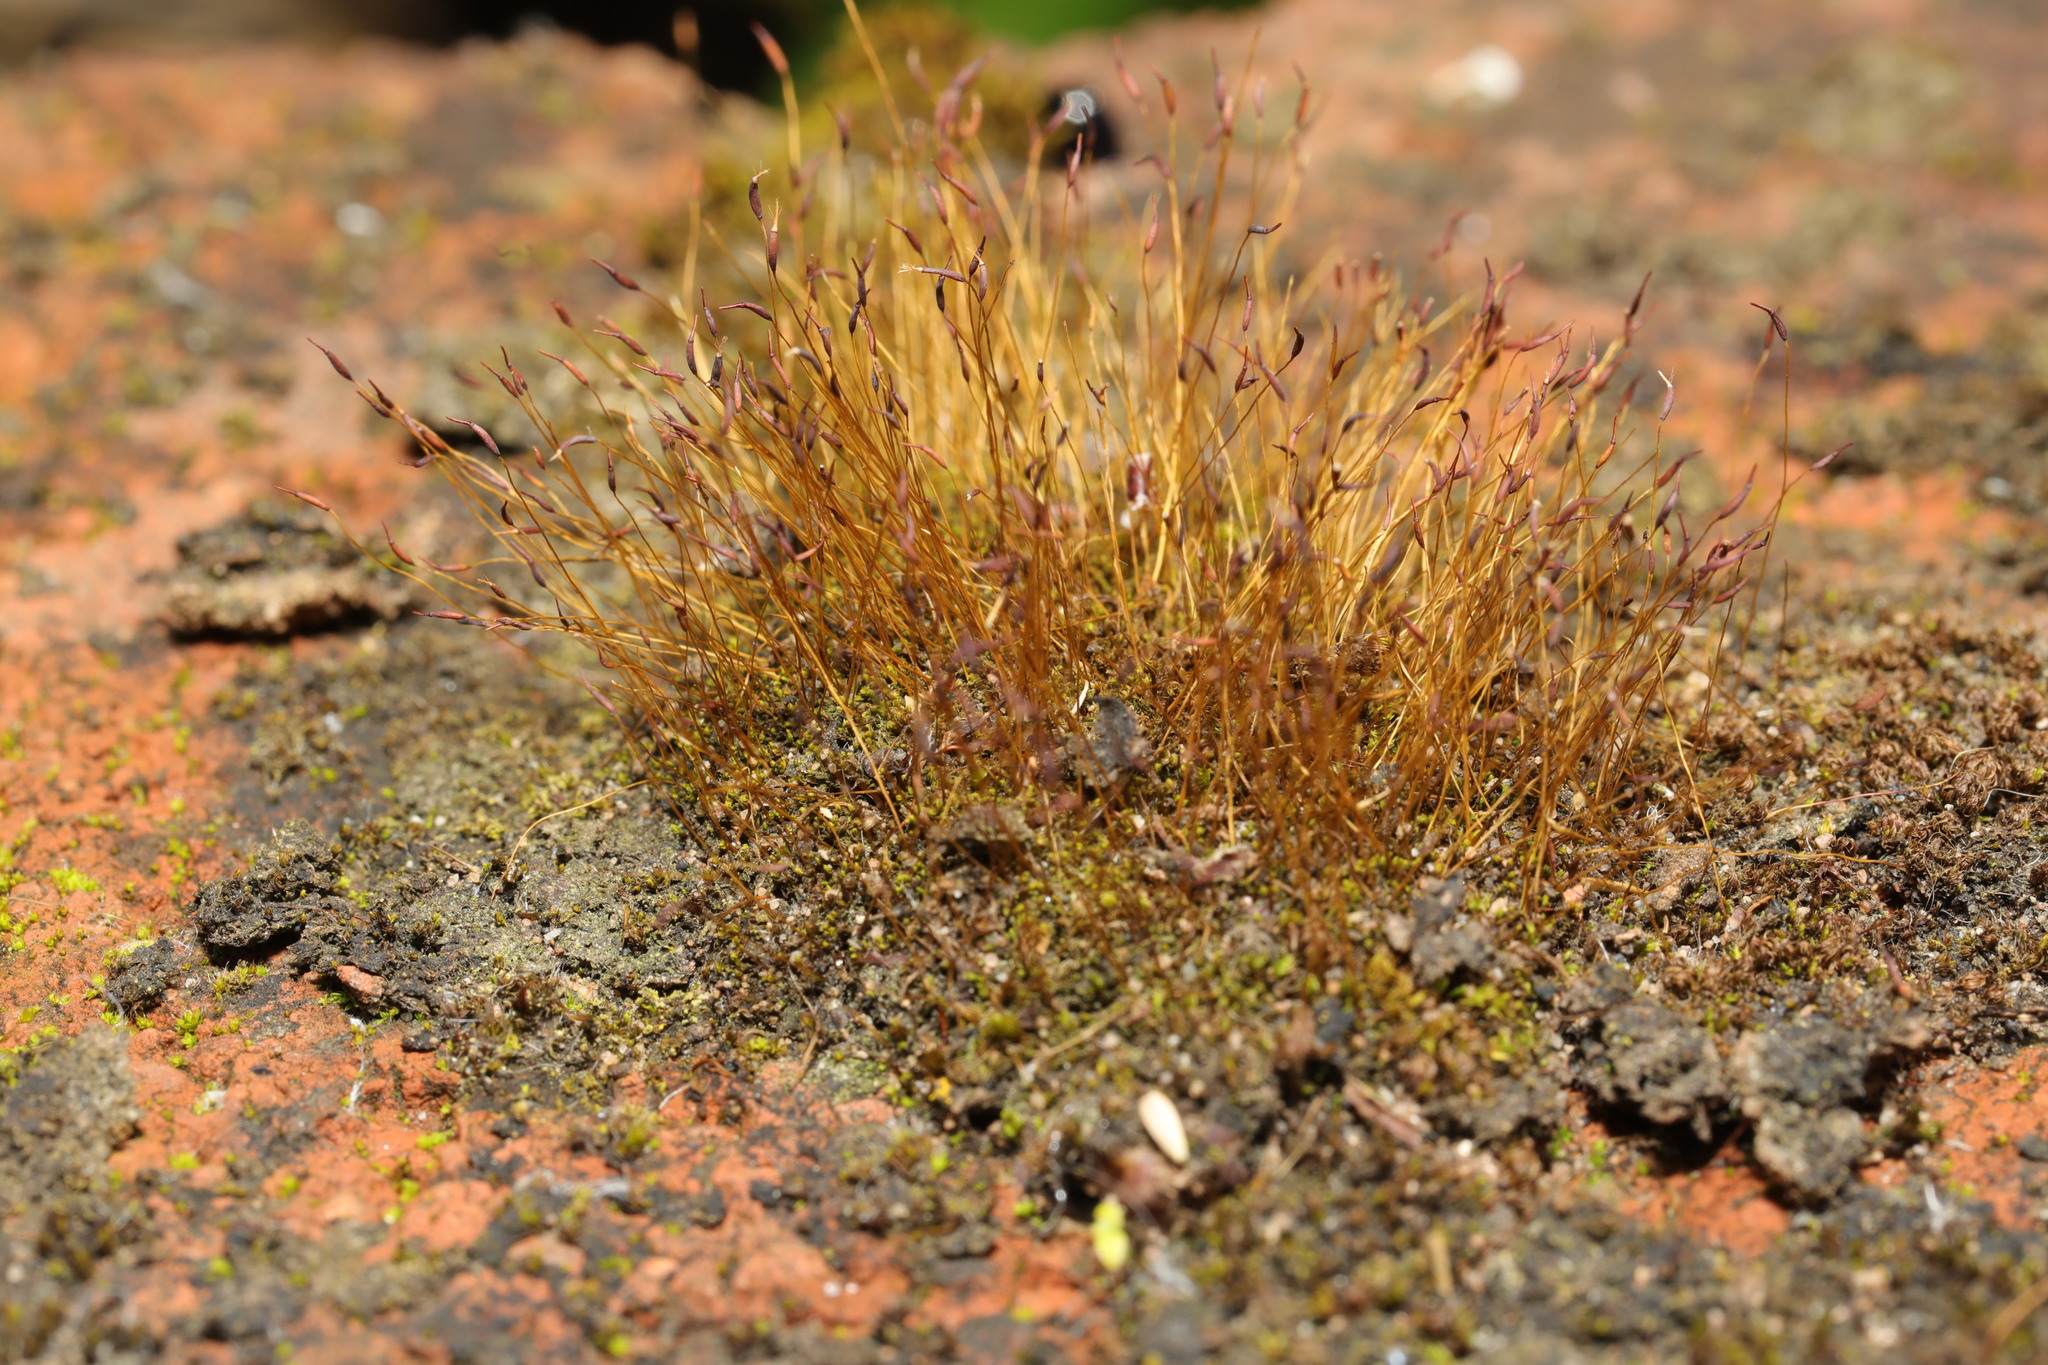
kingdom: Plantae
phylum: Bryophyta
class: Bryopsida
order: Pottiales
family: Pottiaceae
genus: Tortula
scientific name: Tortula muralis
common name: Wall screw-moss
